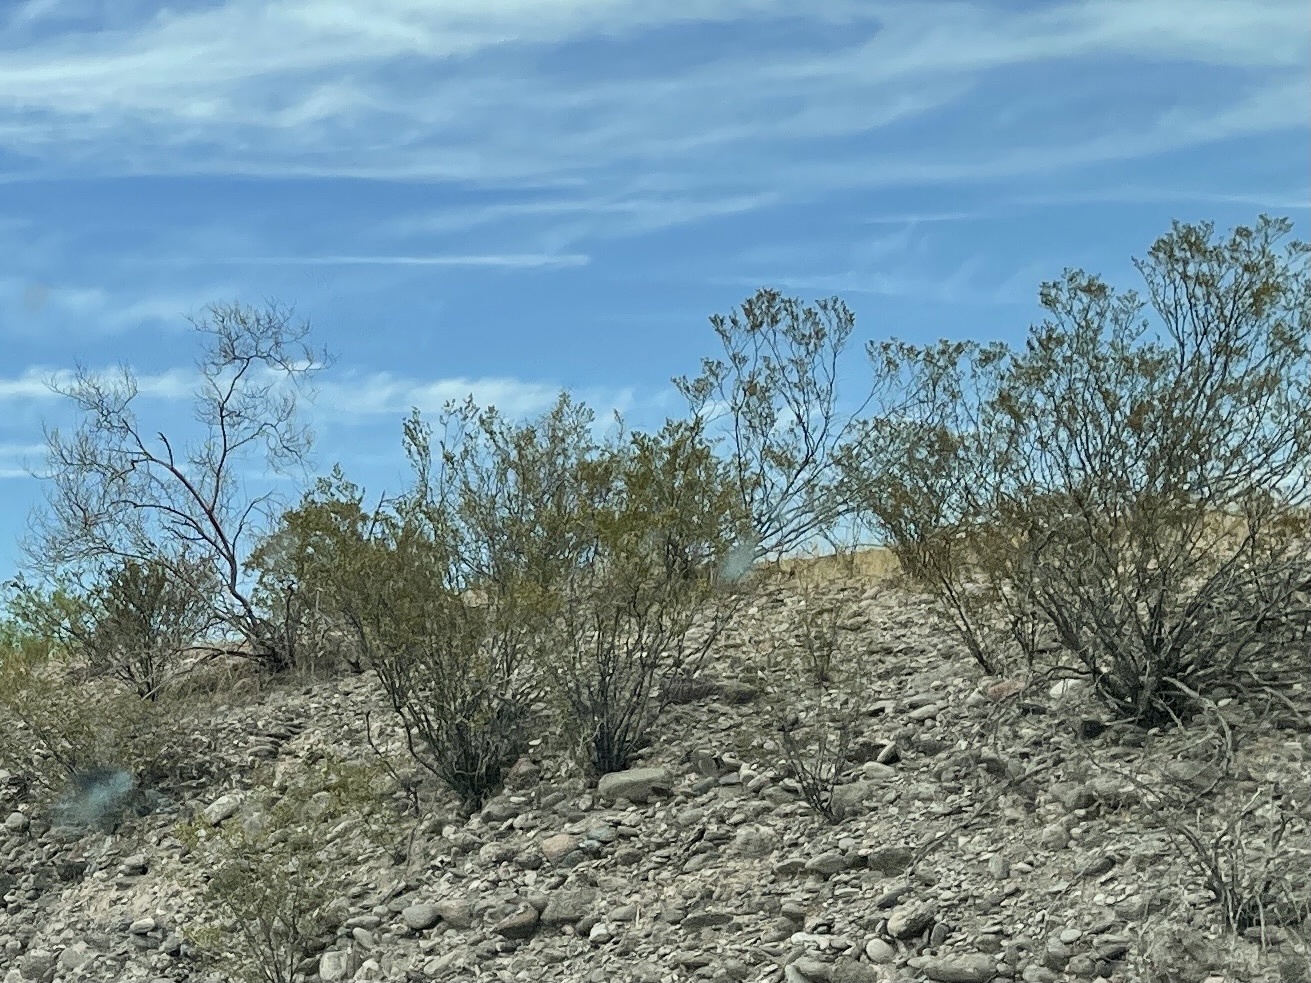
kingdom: Plantae
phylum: Tracheophyta
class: Magnoliopsida
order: Zygophyllales
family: Zygophyllaceae
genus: Larrea
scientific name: Larrea tridentata
